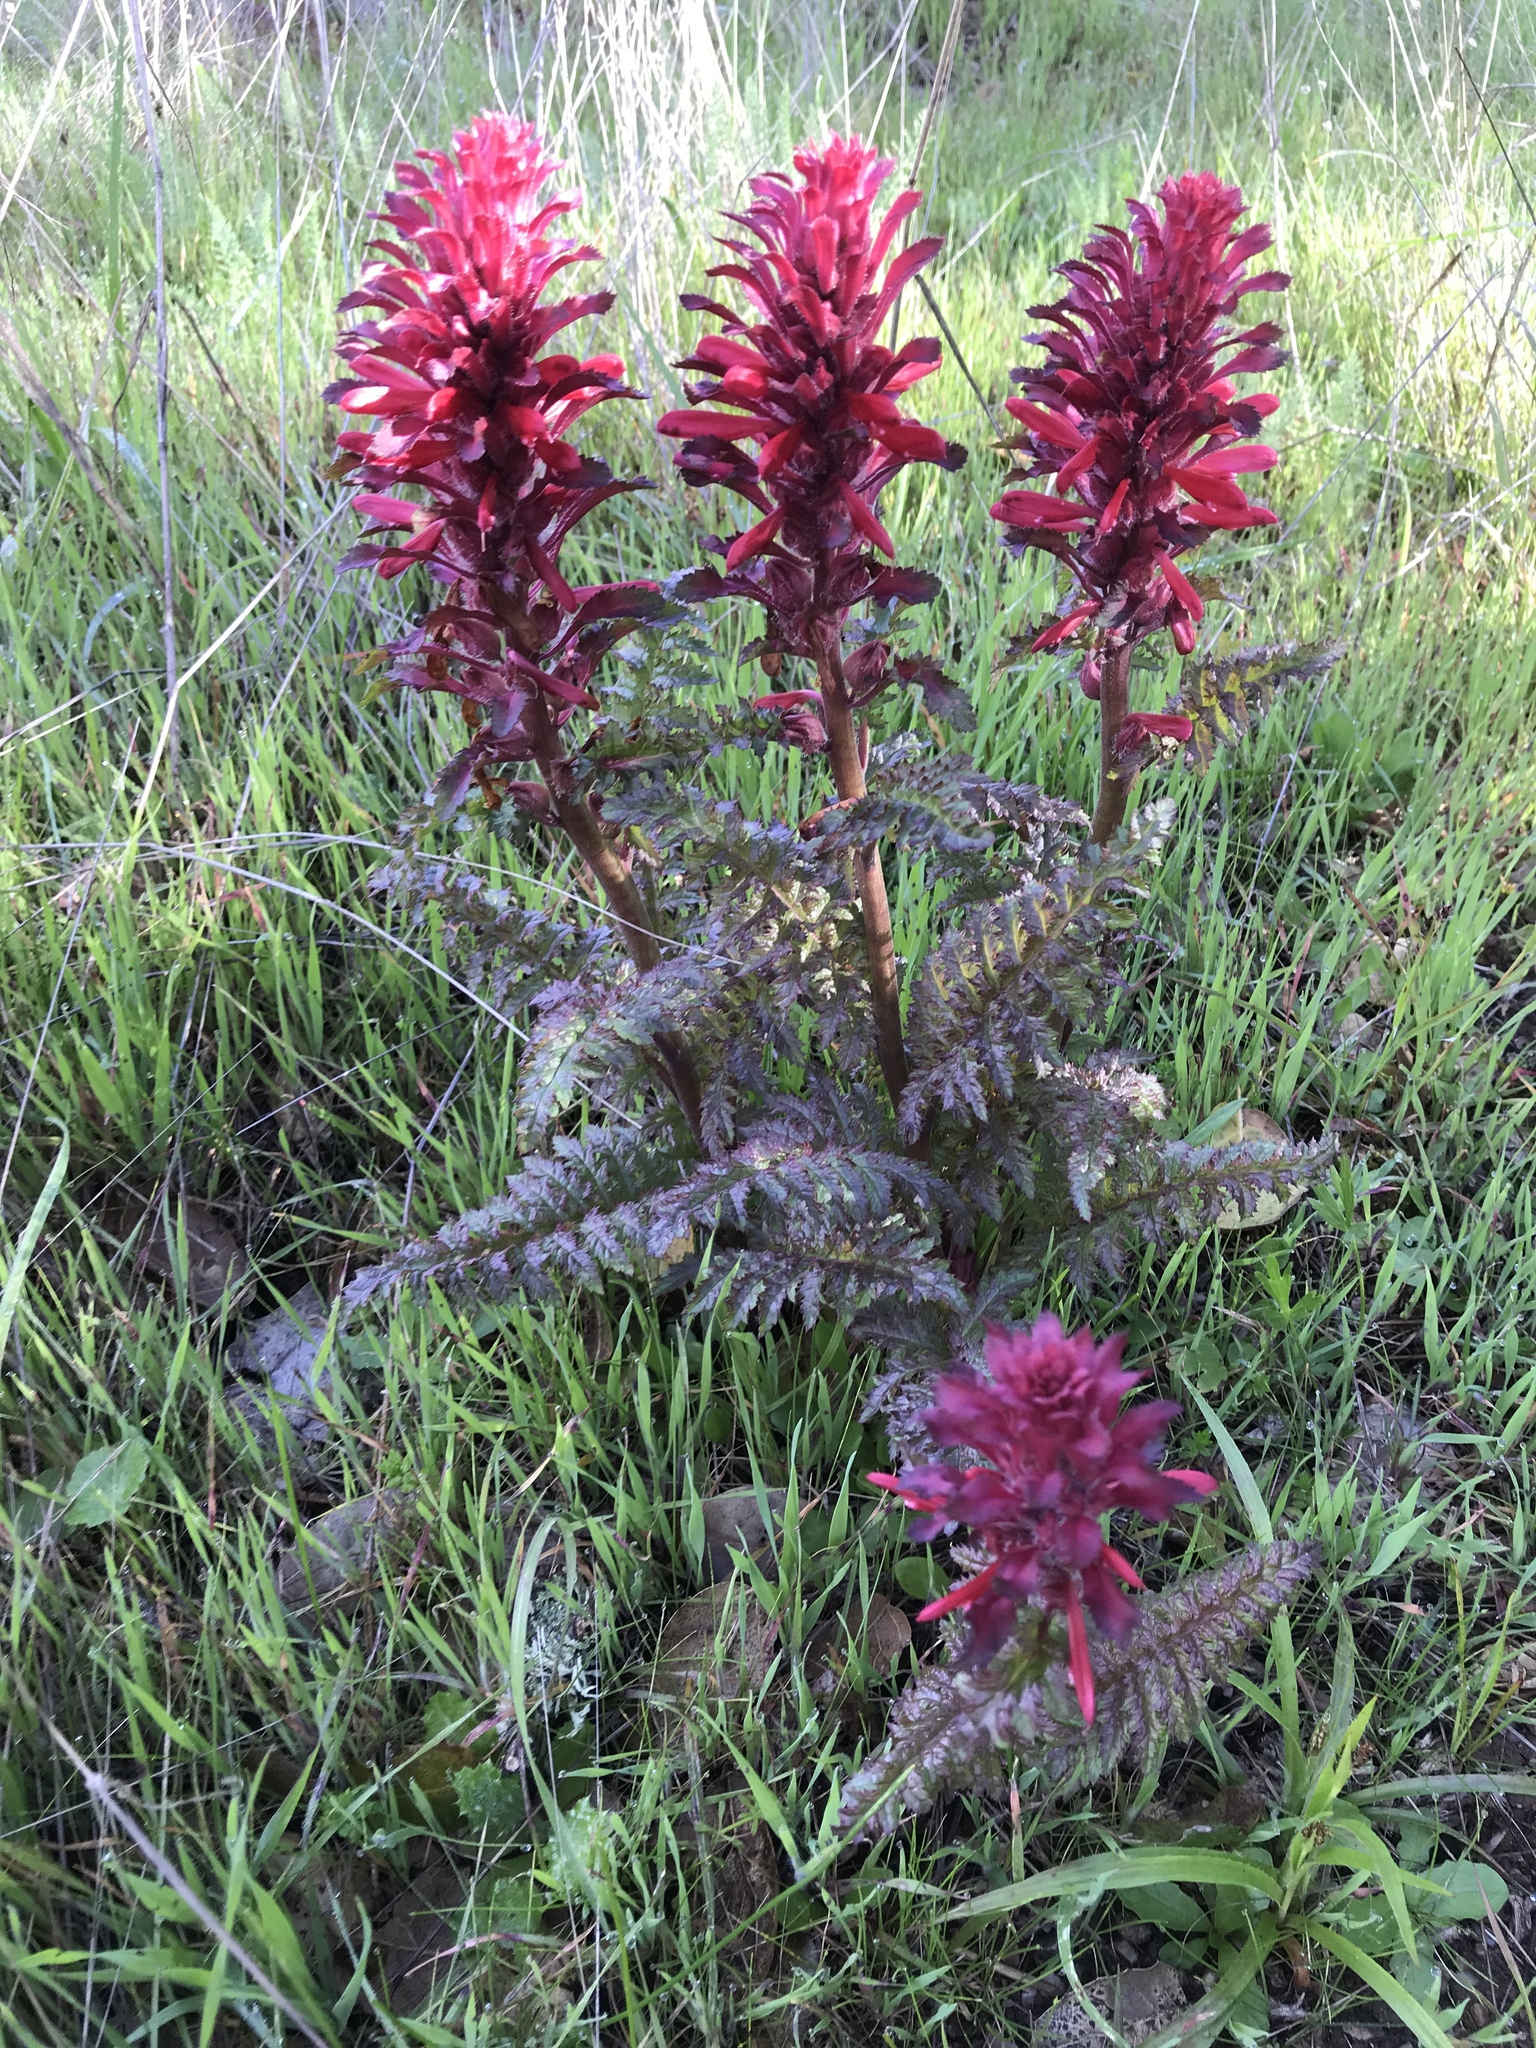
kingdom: Plantae
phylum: Tracheophyta
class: Magnoliopsida
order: Lamiales
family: Orobanchaceae
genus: Pedicularis
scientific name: Pedicularis densiflora
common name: Indian warrior
